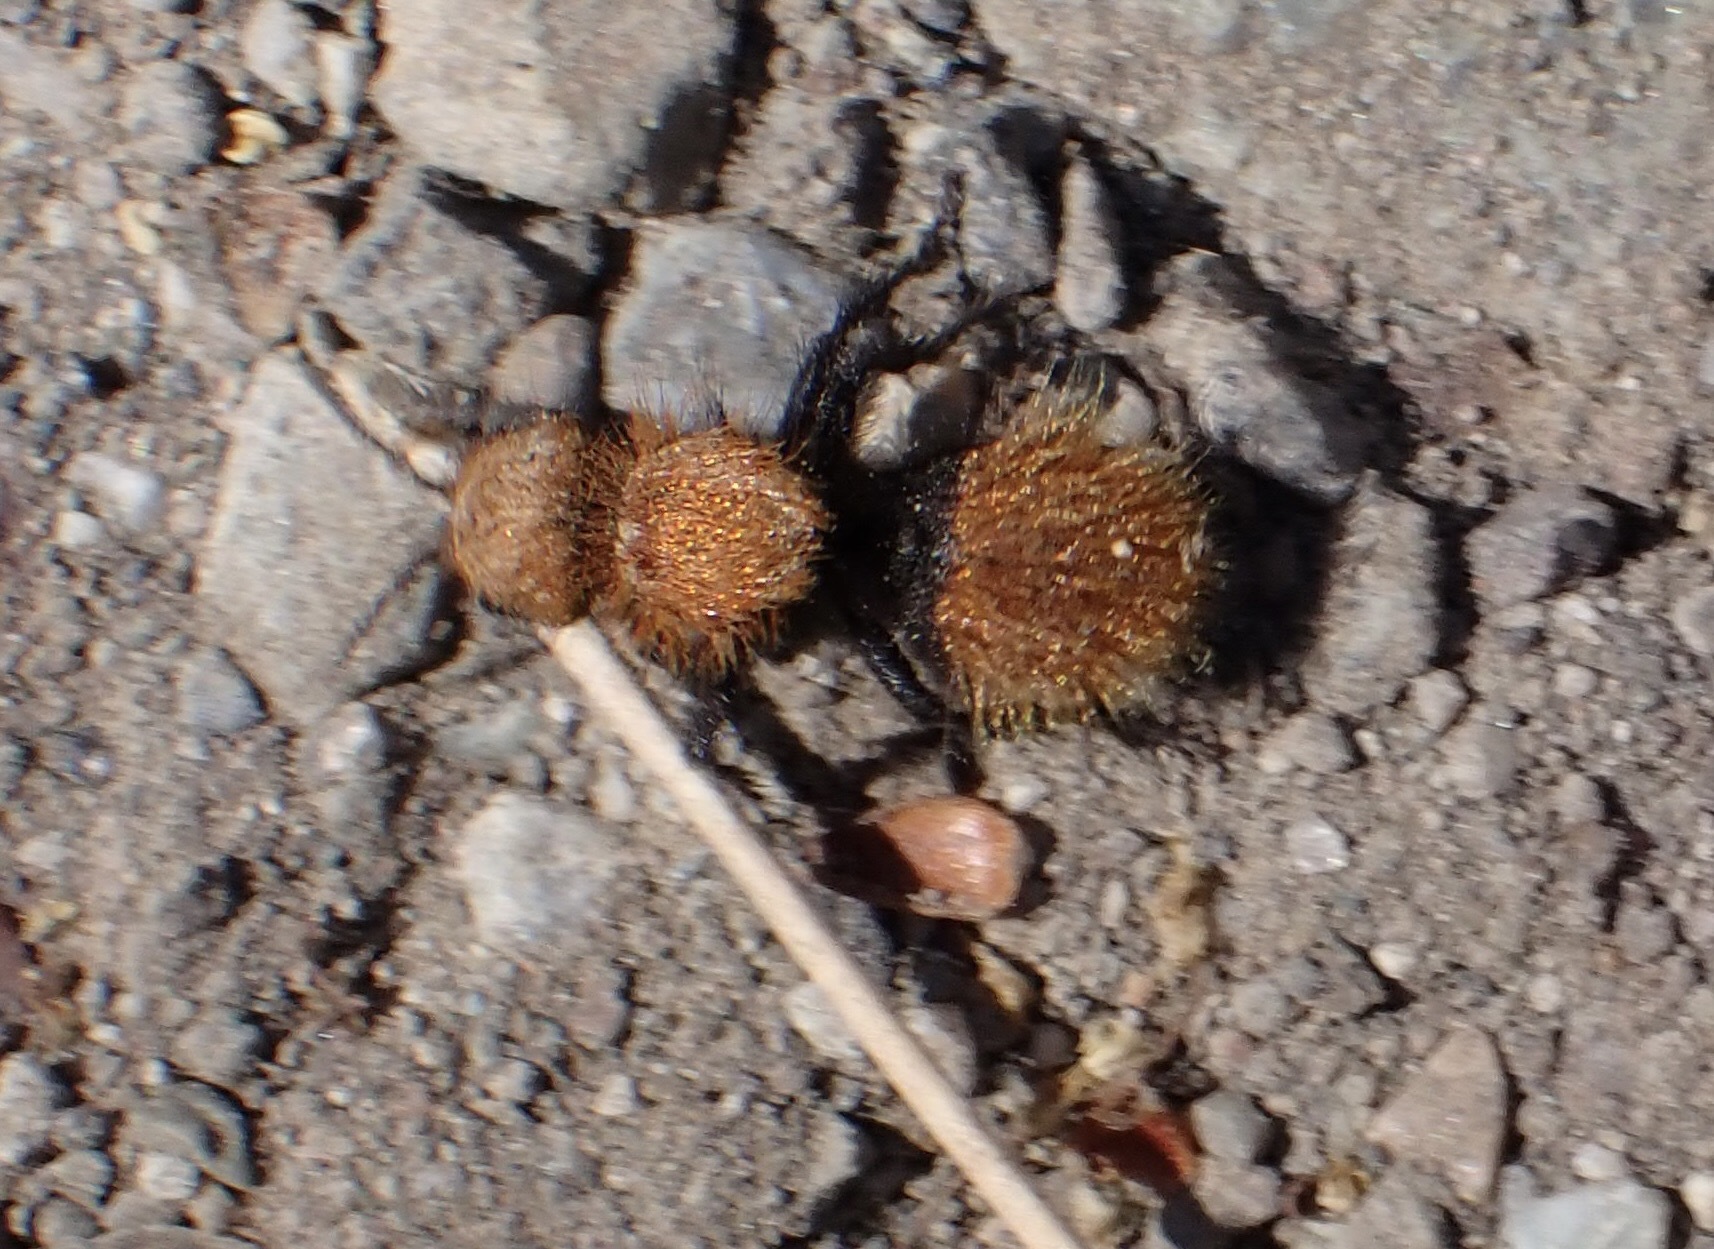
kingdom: Animalia
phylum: Arthropoda
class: Insecta
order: Hymenoptera
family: Mutillidae
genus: Dasymutilla
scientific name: Dasymutilla
